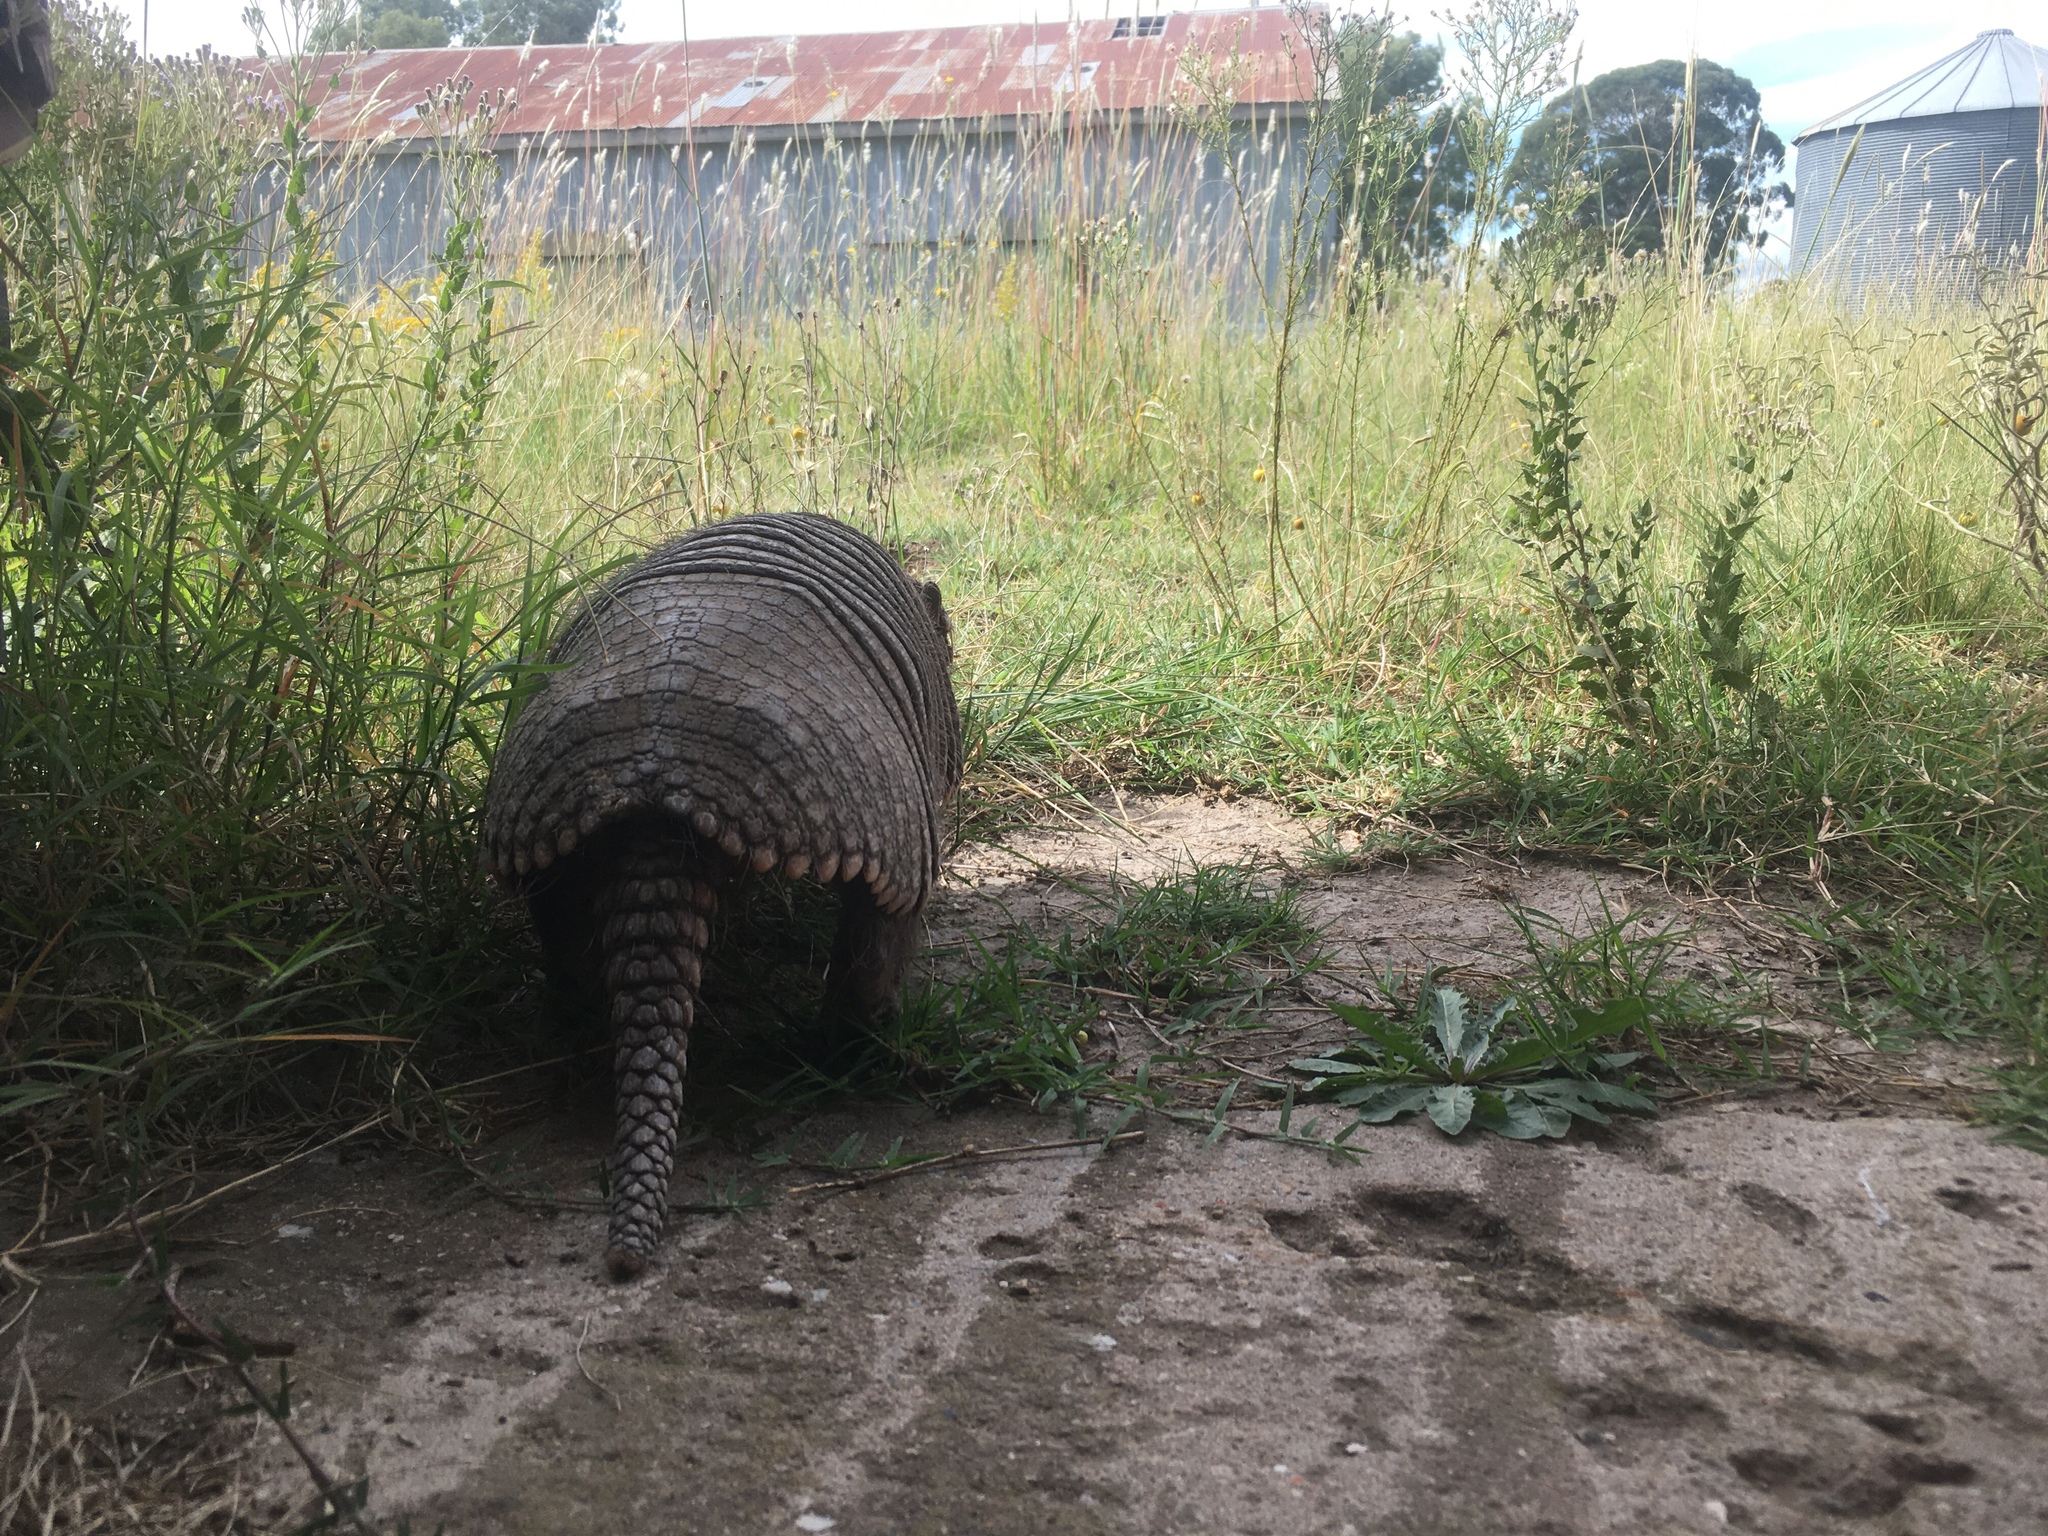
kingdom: Animalia
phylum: Chordata
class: Mammalia
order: Cingulata
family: Dasypodidae
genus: Chaetophractus
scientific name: Chaetophractus villosus
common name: Big hairy armadillo
